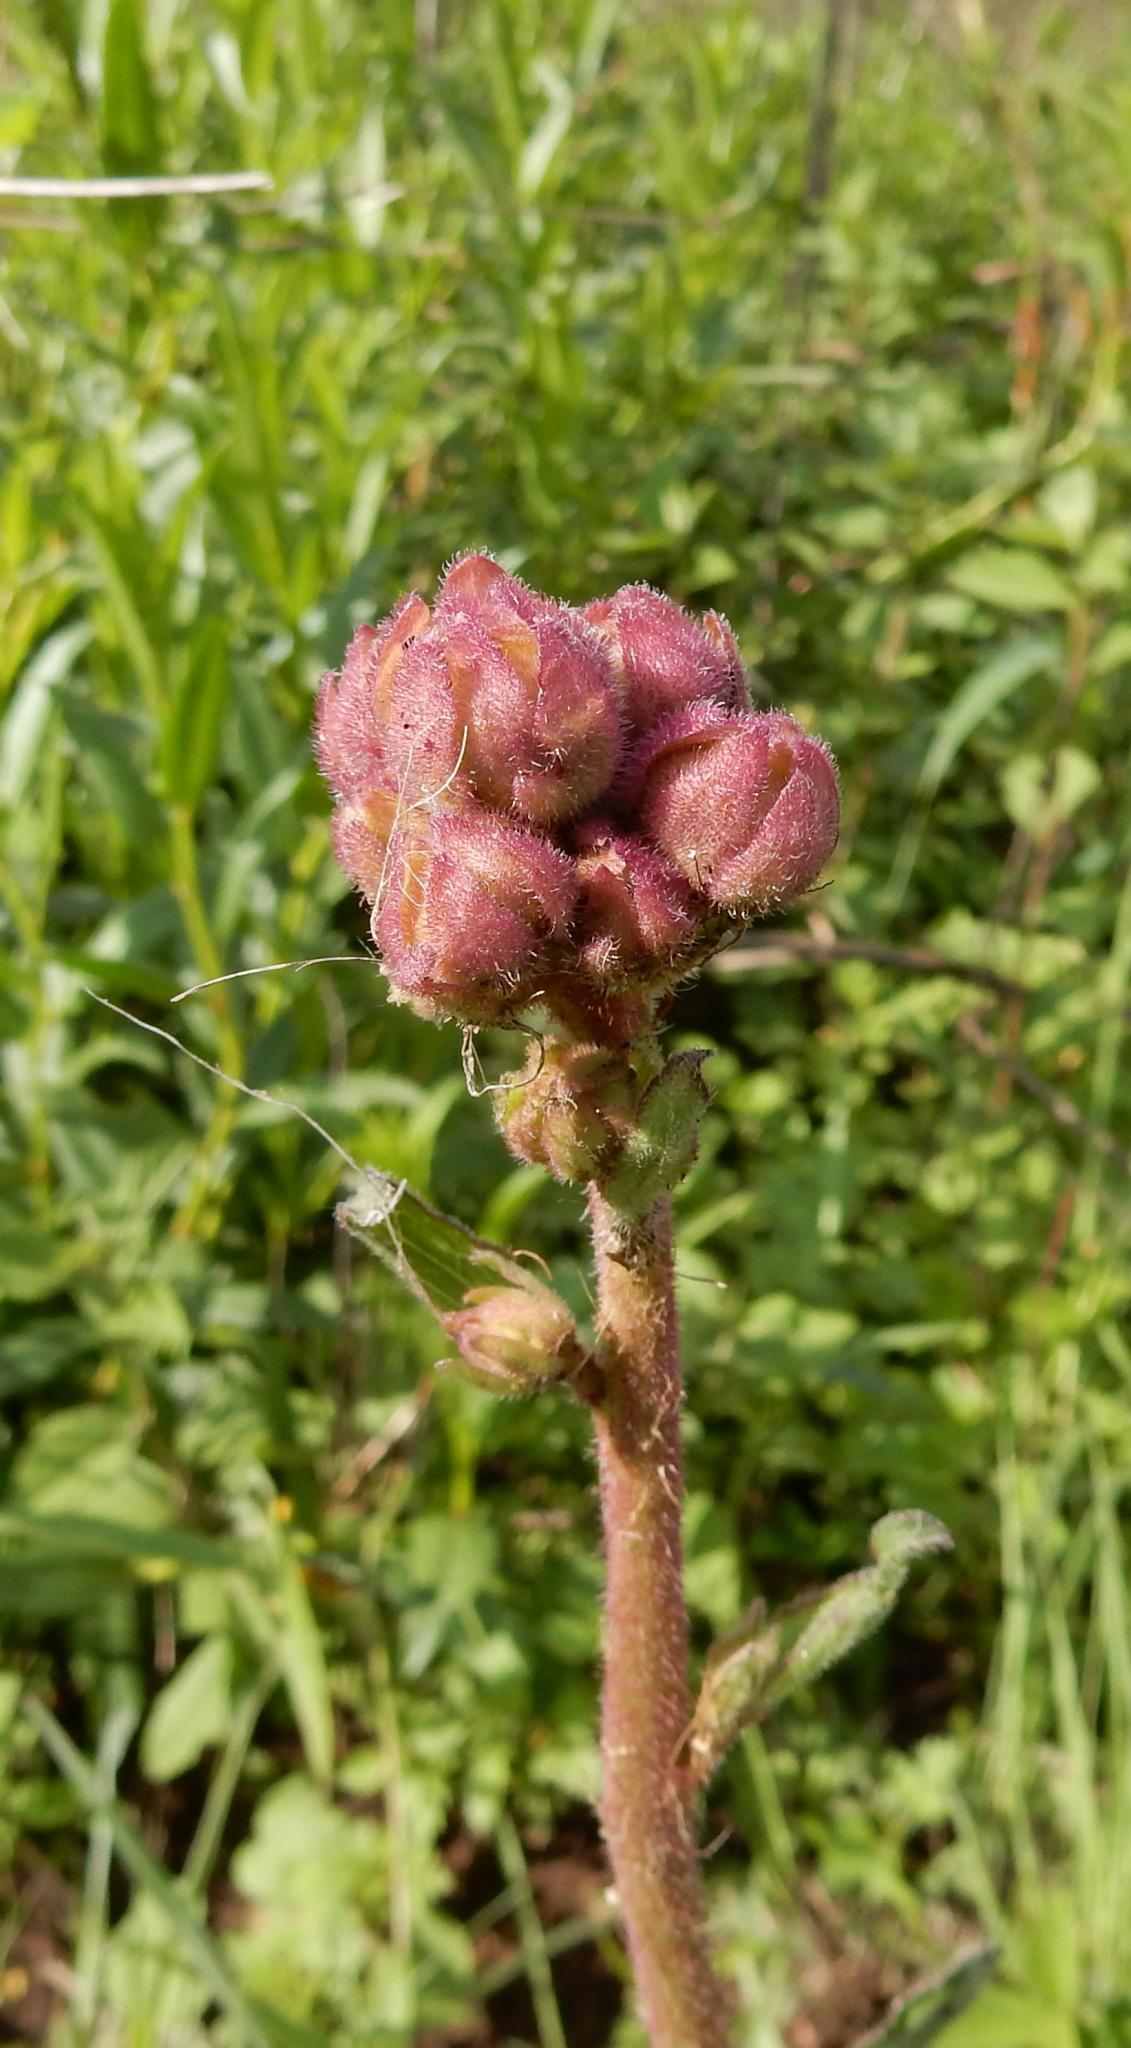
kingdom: Plantae
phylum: Tracheophyta
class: Magnoliopsida
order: Asterales
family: Asteraceae
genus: Campuloclinium
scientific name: Campuloclinium macrocephalum
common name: Pompomweed
